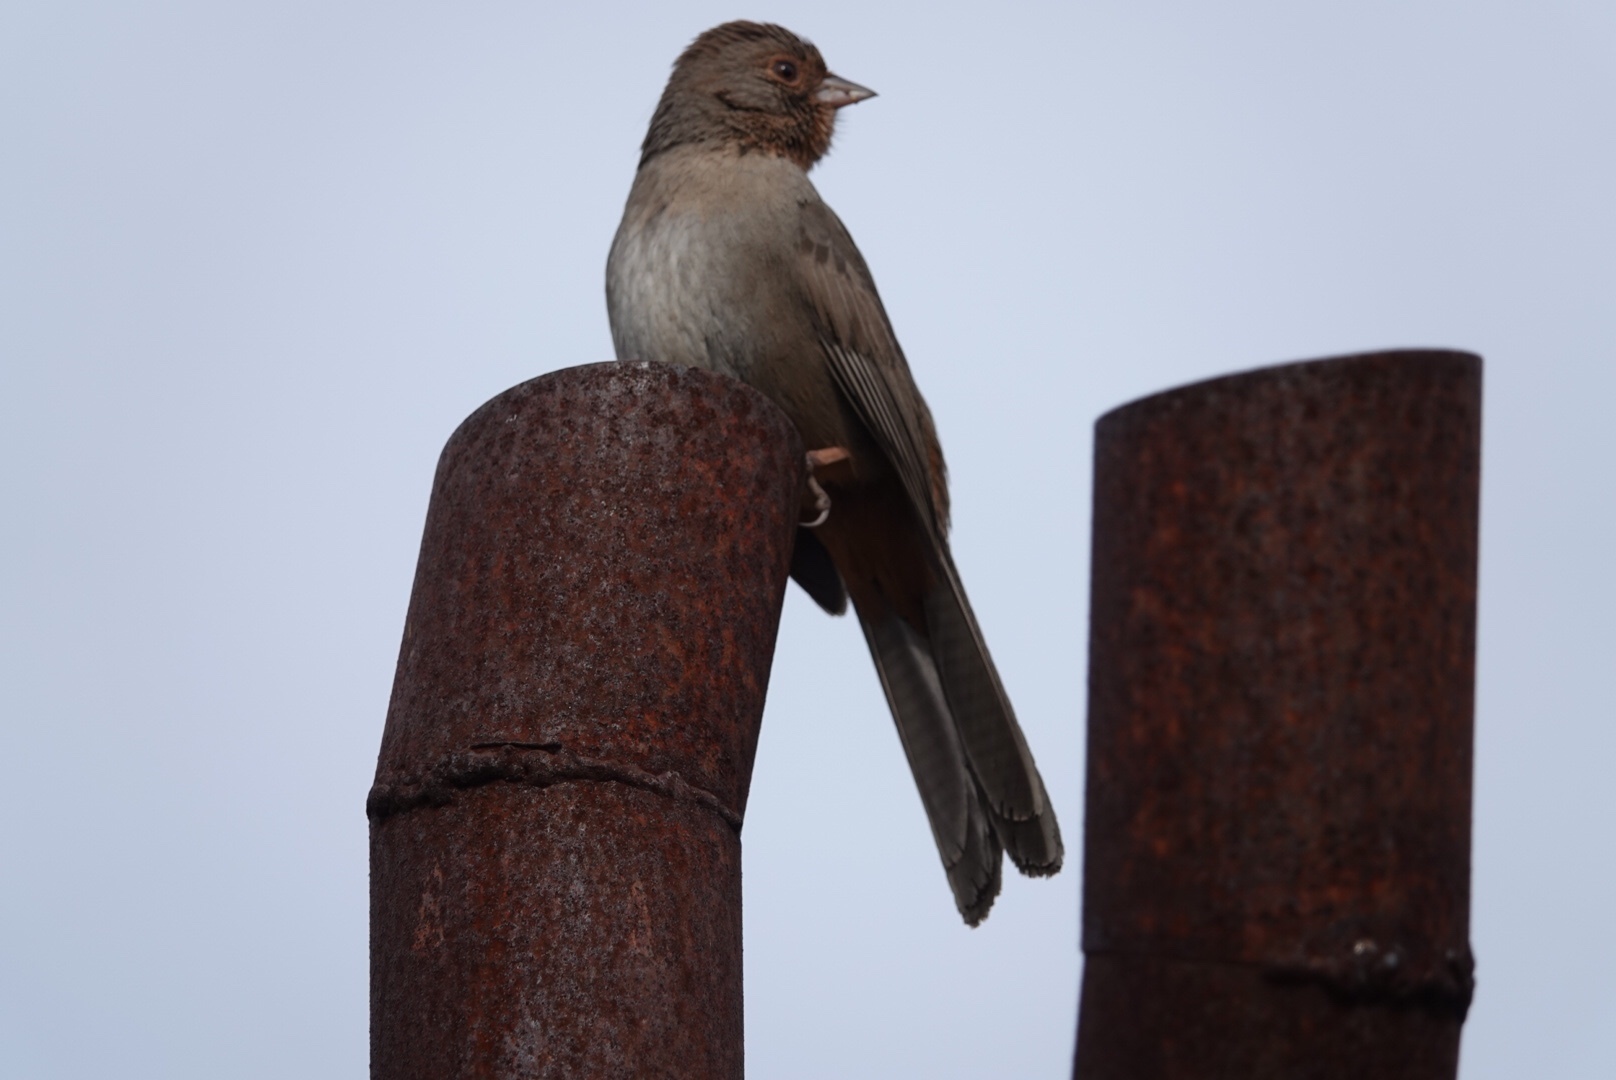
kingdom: Animalia
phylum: Chordata
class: Aves
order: Passeriformes
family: Passerellidae
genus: Melozone
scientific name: Melozone crissalis
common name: California towhee
